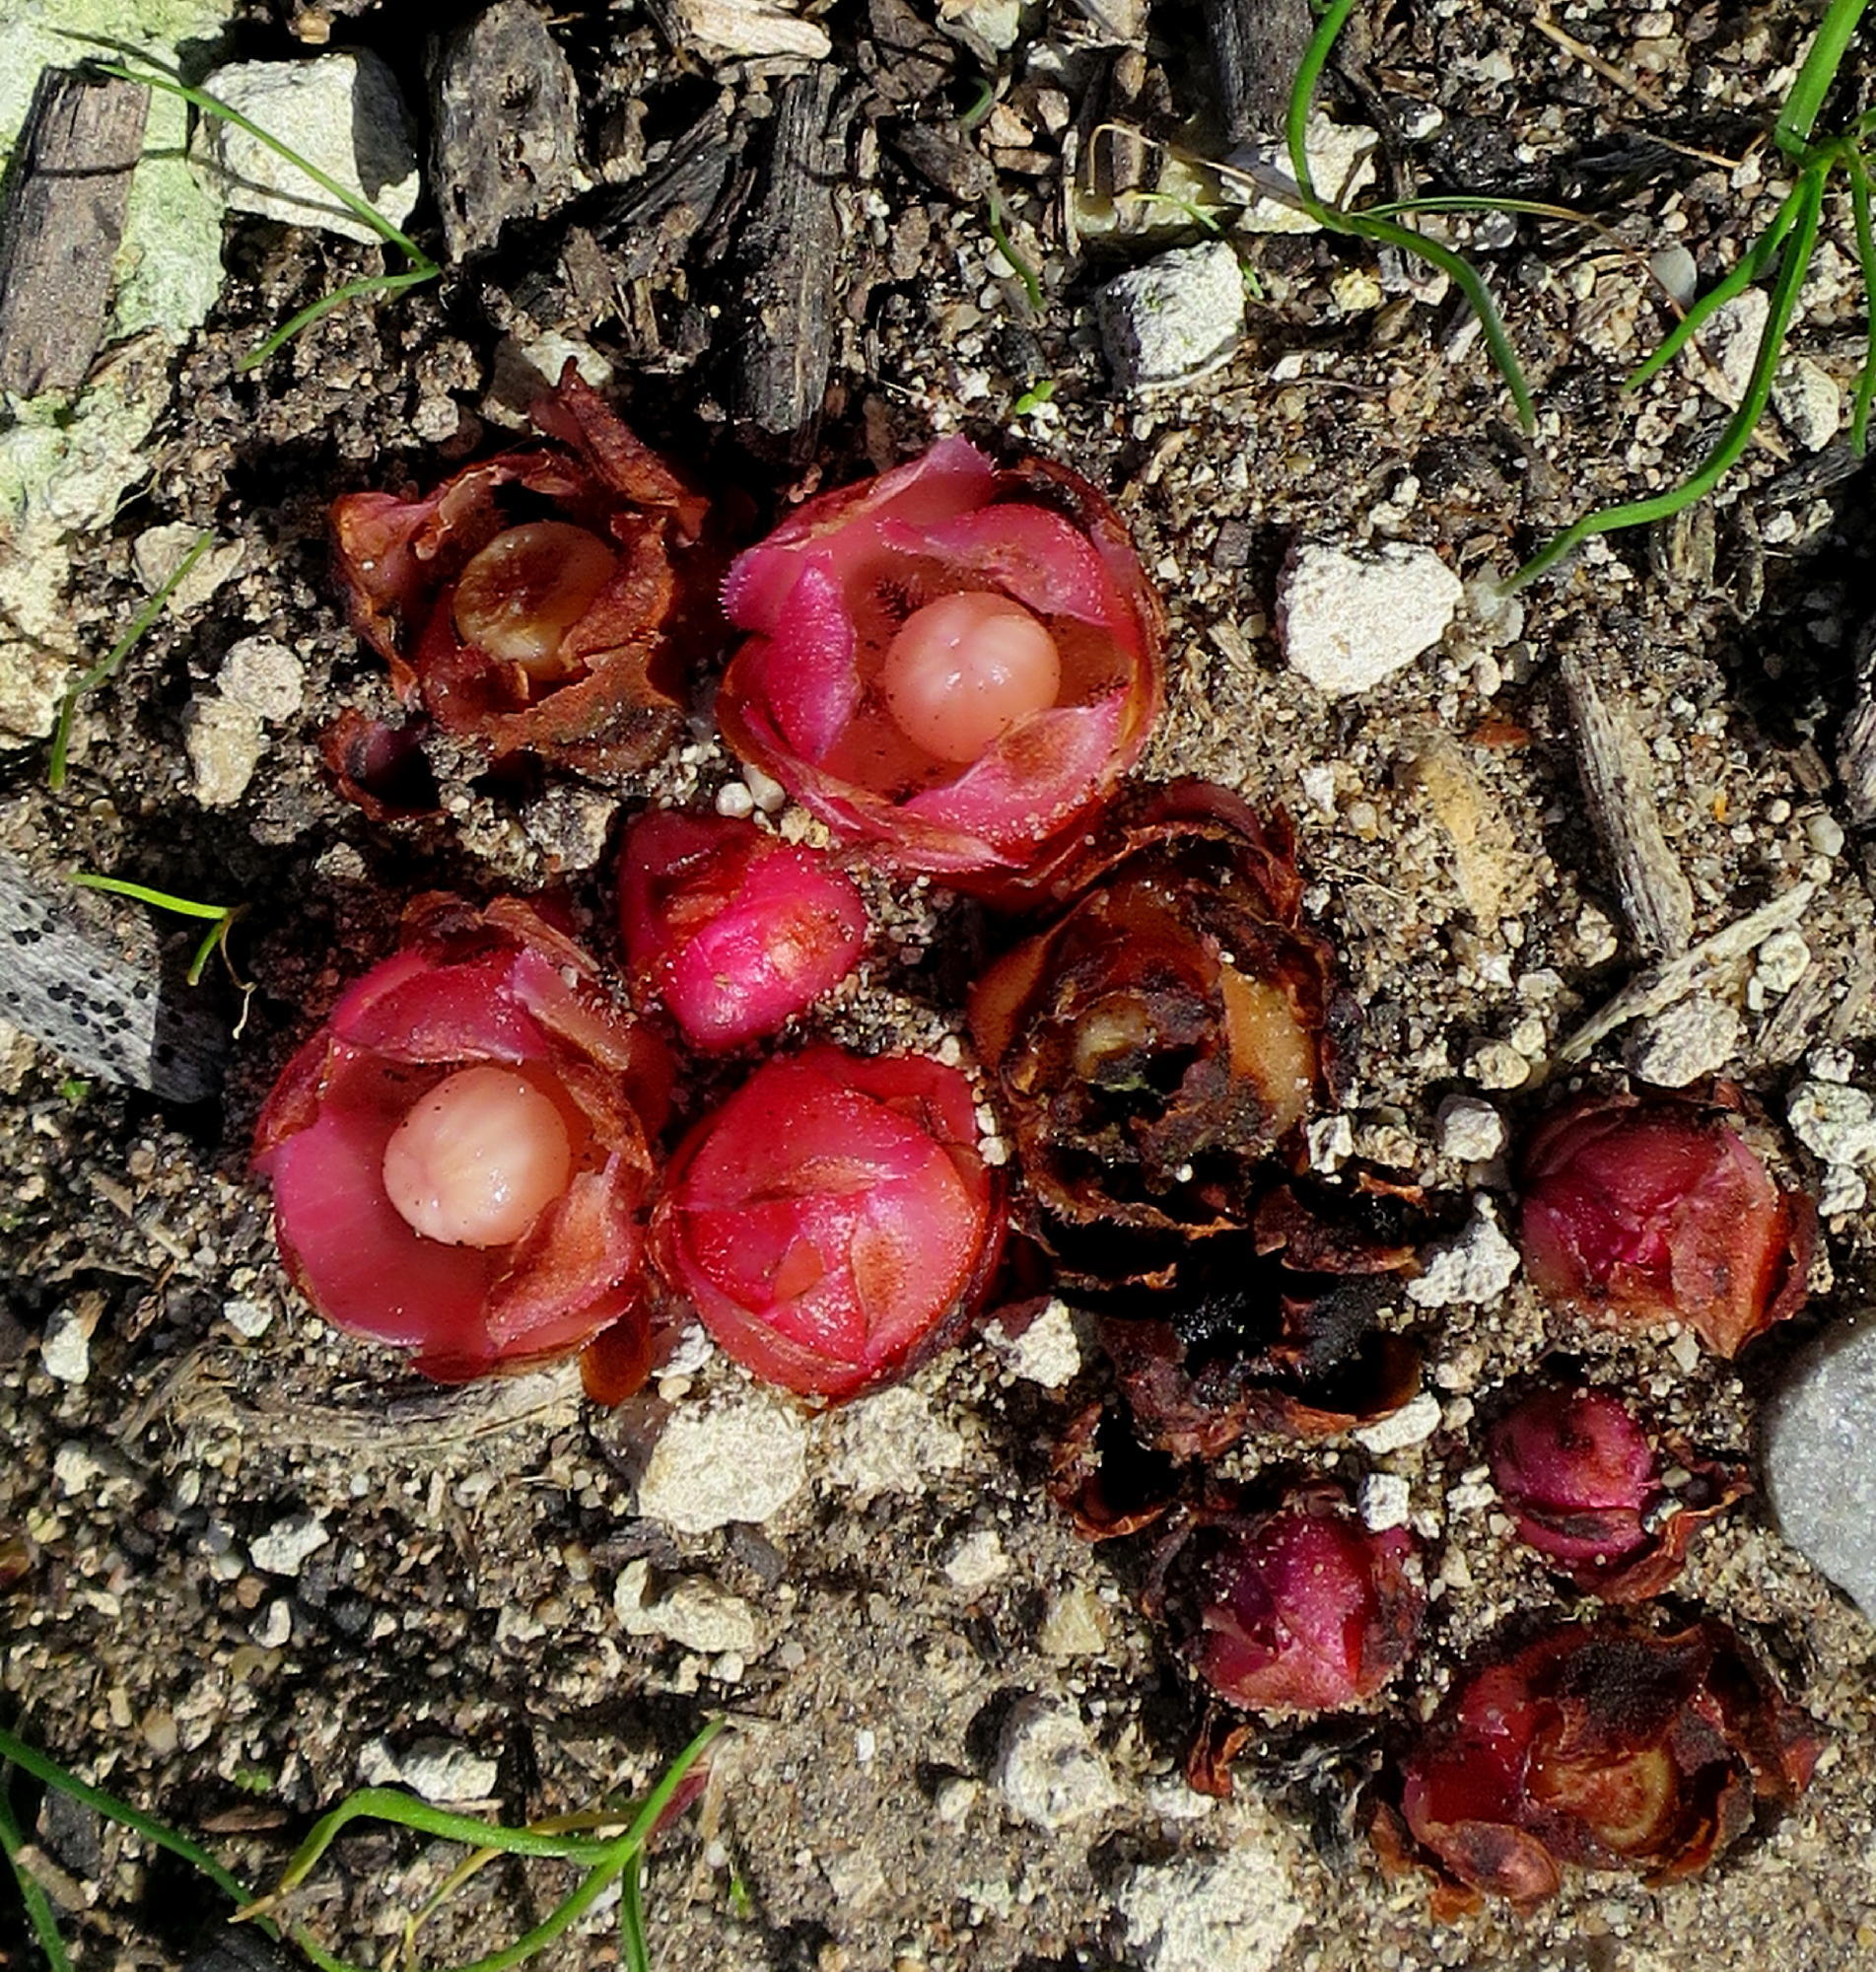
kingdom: Plantae
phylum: Tracheophyta
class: Magnoliopsida
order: Malvales
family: Cytinaceae
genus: Cytinus
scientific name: Cytinus sanguineus
